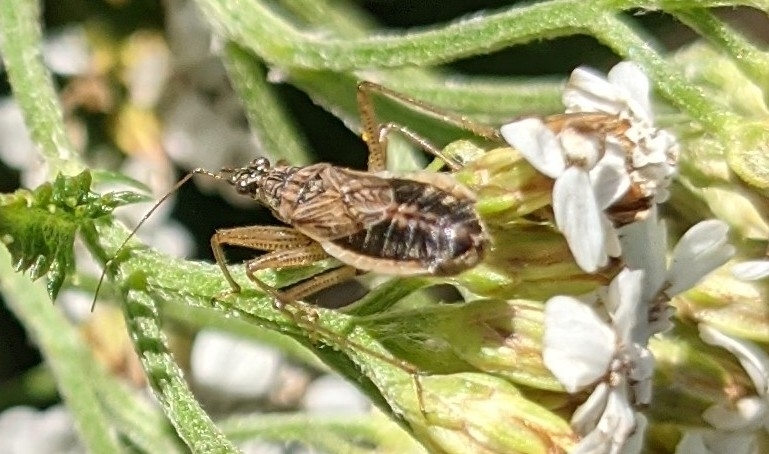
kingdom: Animalia
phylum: Arthropoda
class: Insecta
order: Hemiptera
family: Nabidae
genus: Nabis
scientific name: Nabis flavomarginatus
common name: Broad damselbug
